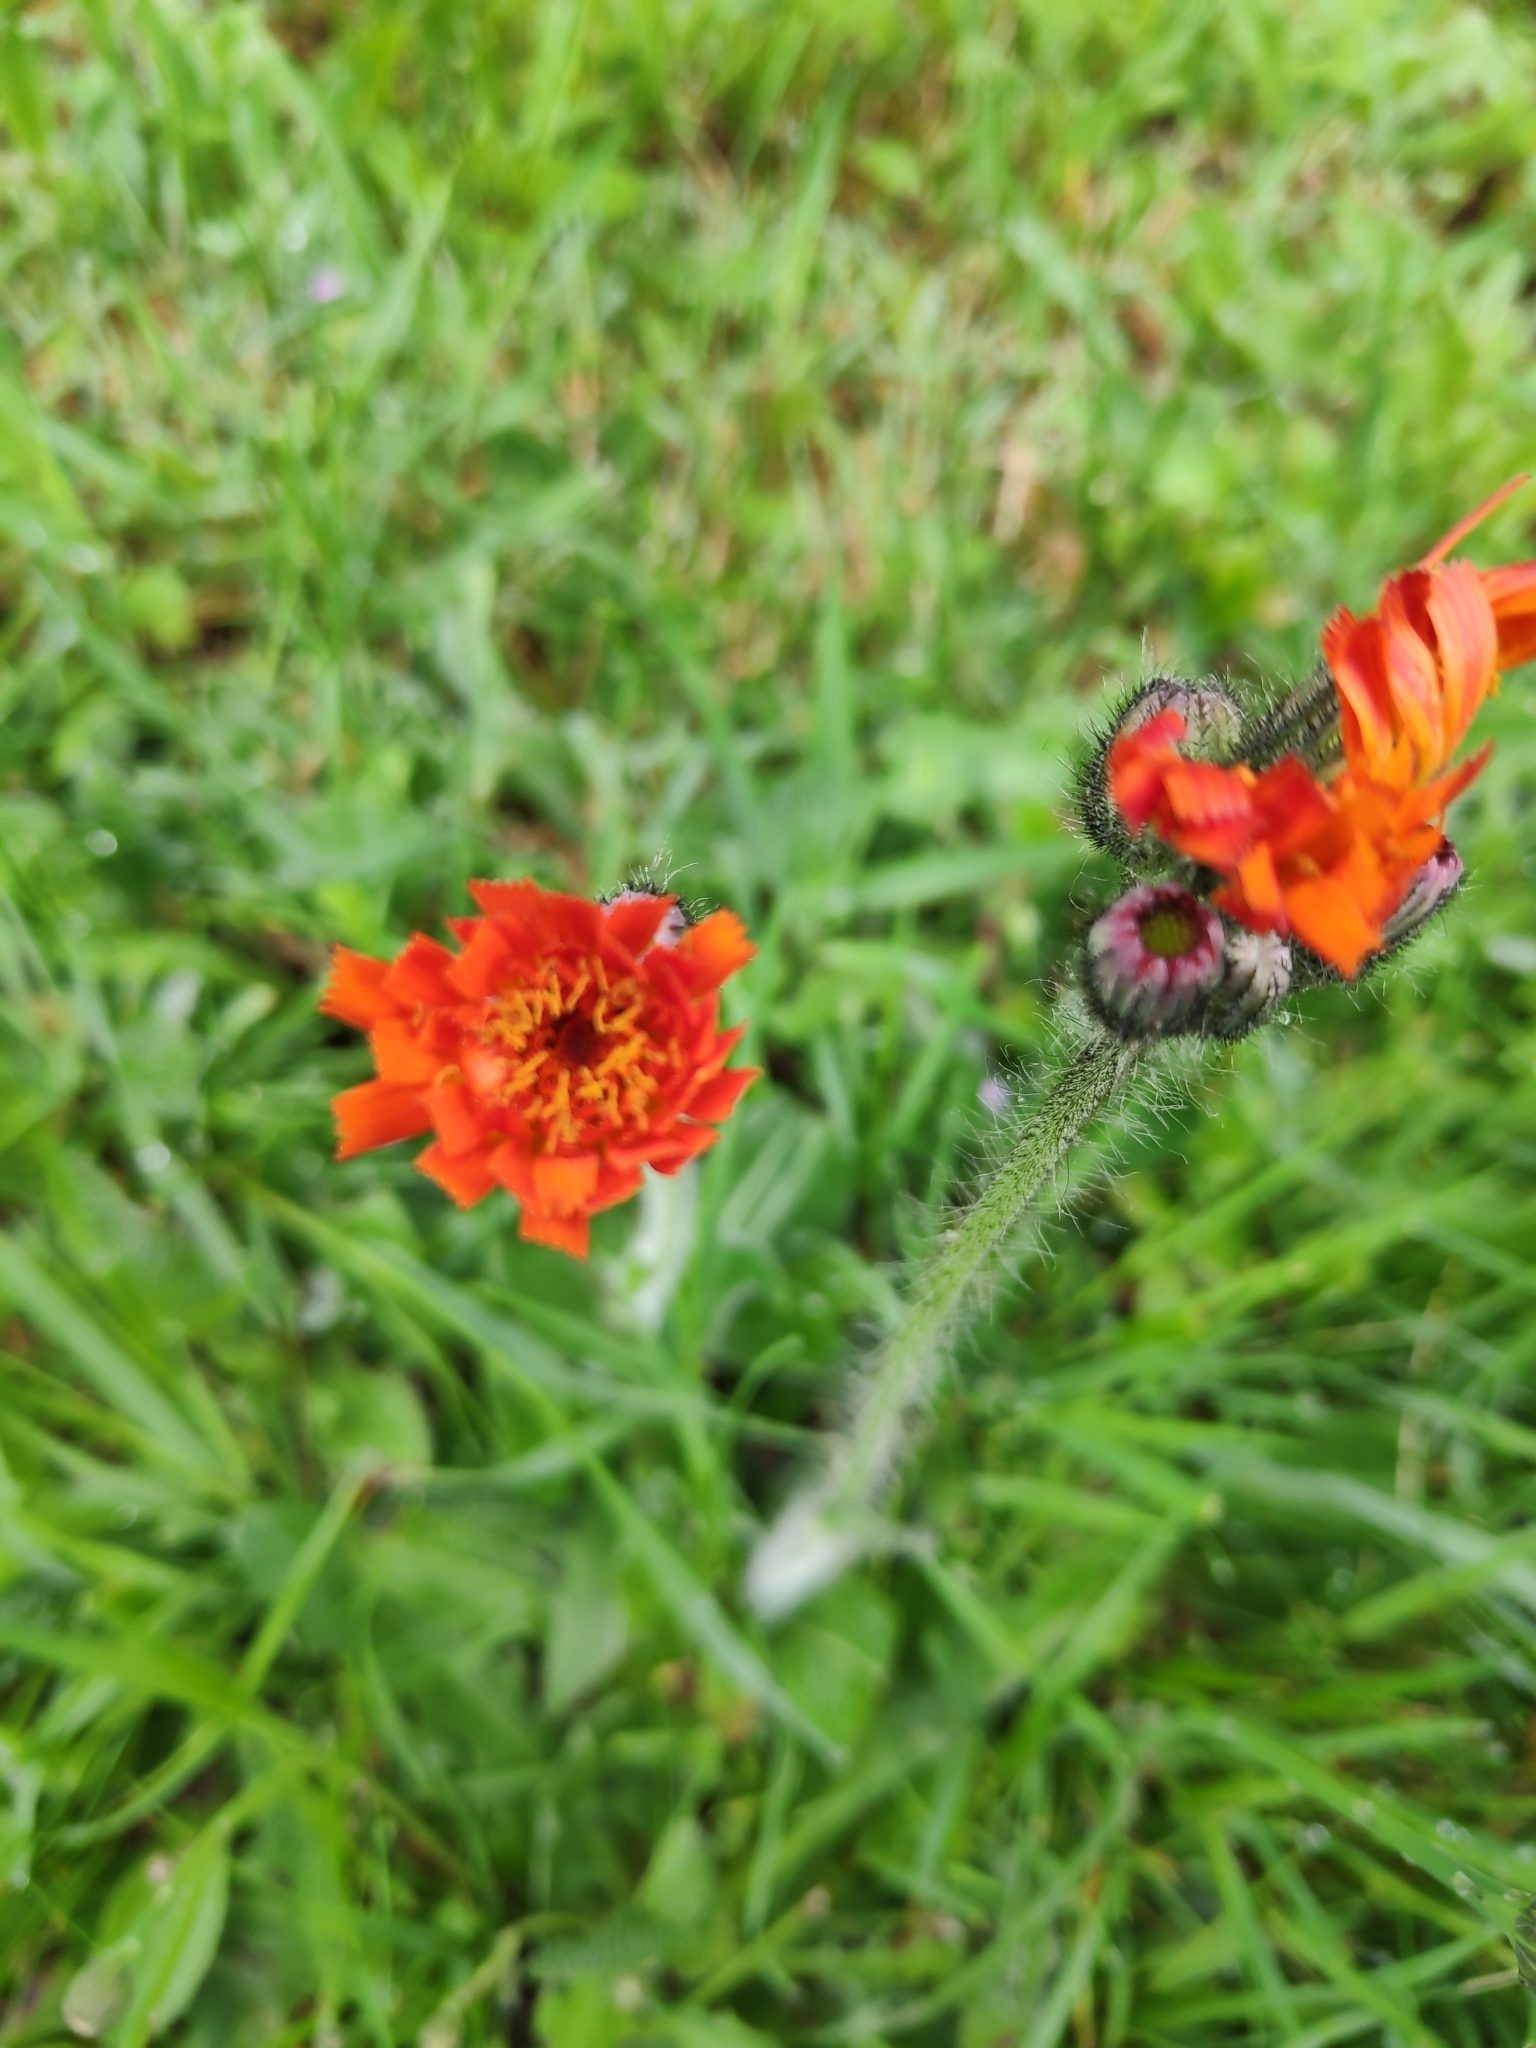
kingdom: Plantae
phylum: Tracheophyta
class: Magnoliopsida
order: Asterales
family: Asteraceae
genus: Pilosella
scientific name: Pilosella aurantiaca
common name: Fox-and-cubs
